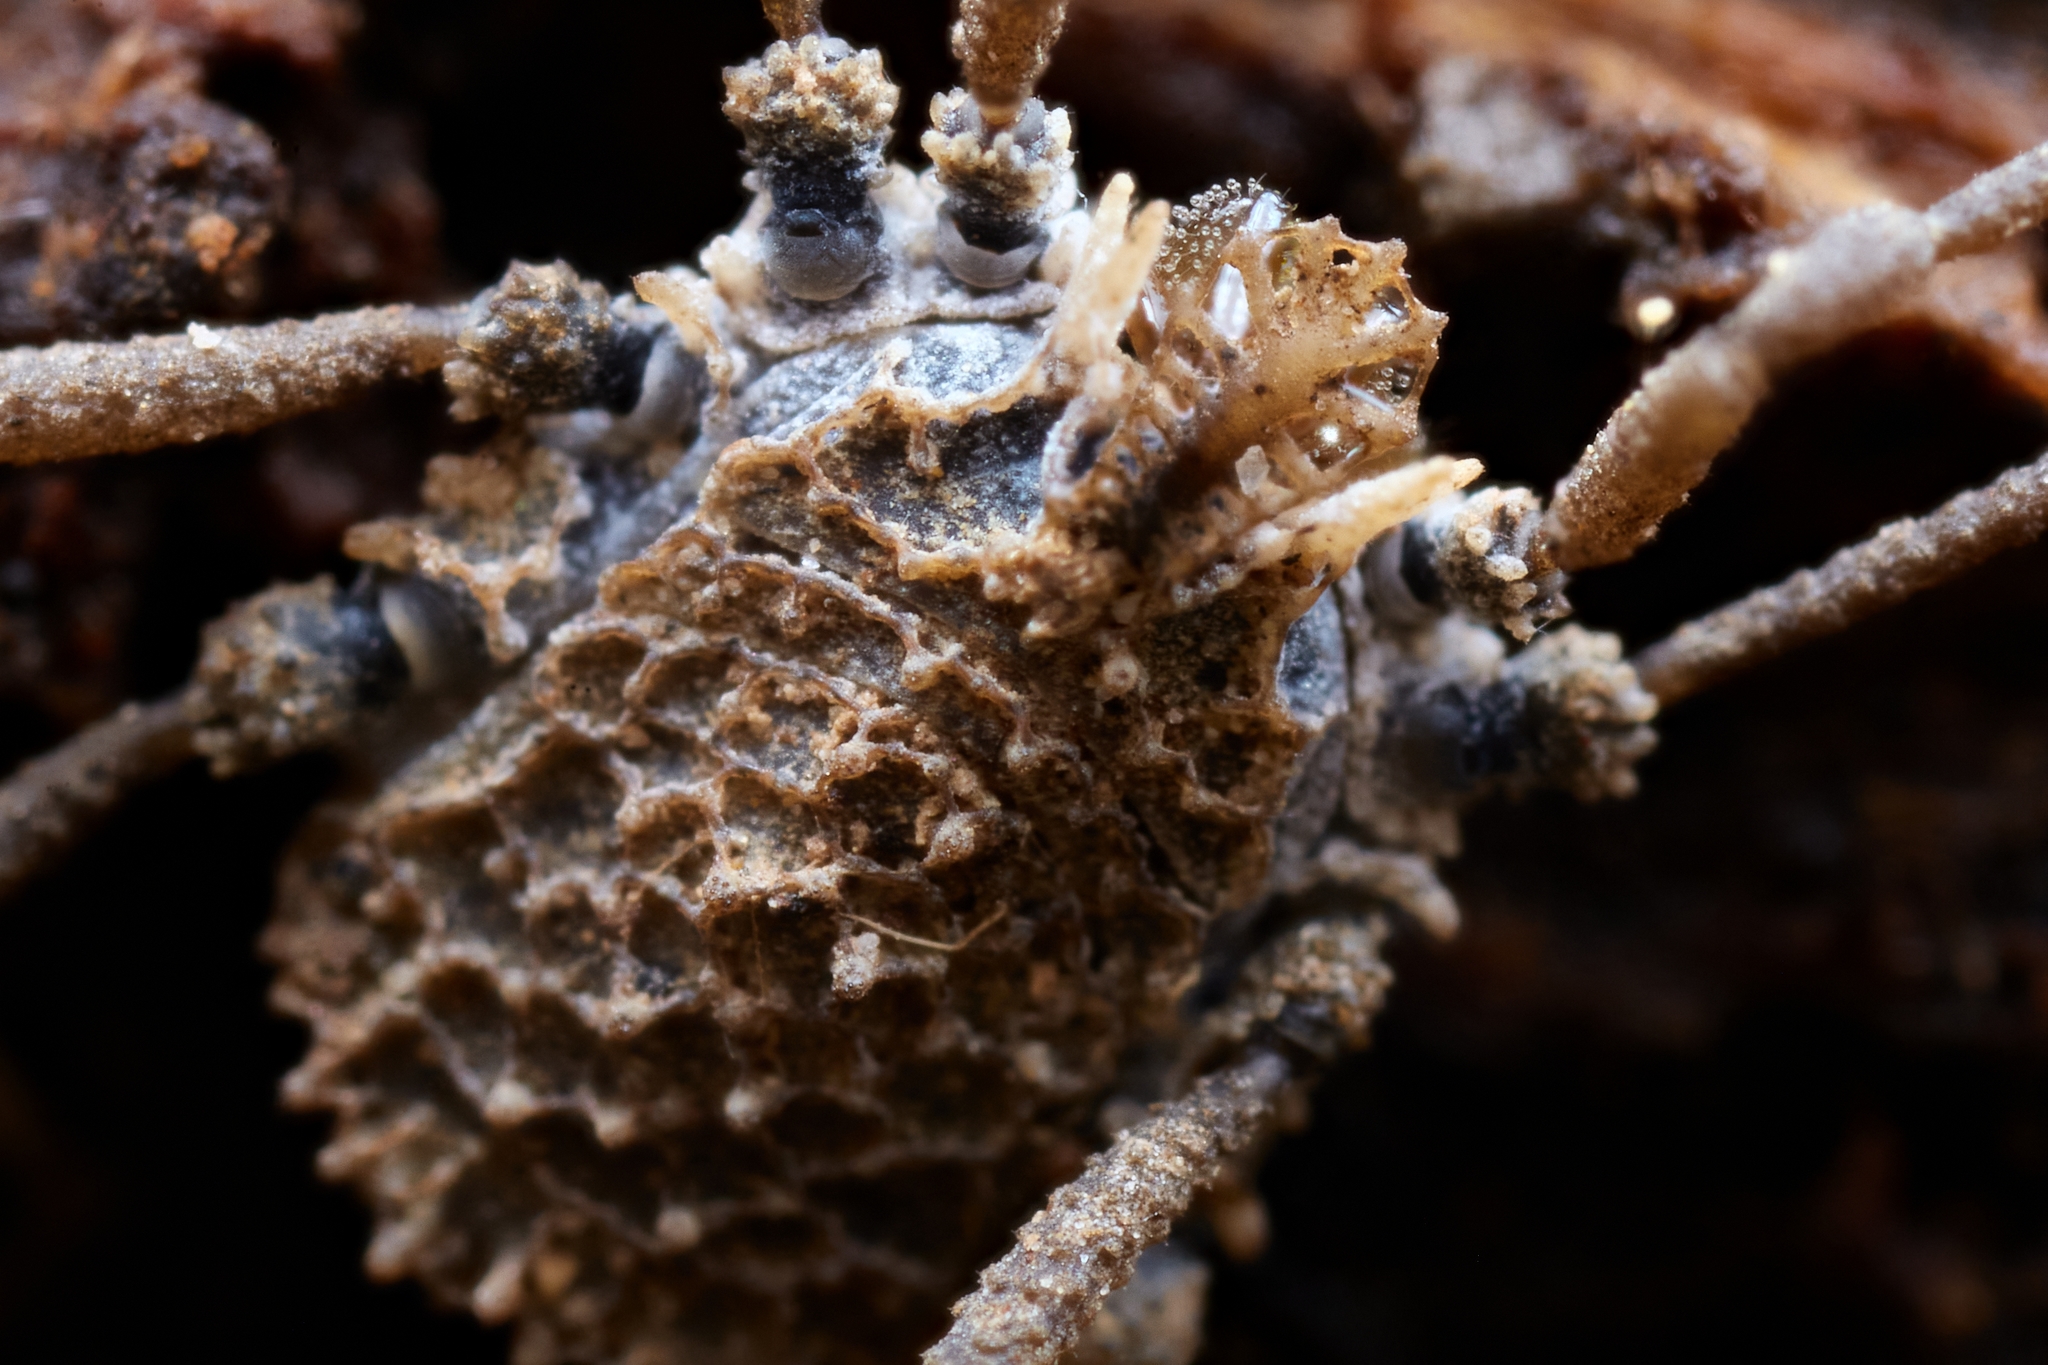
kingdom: Animalia
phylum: Arthropoda
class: Arachnida
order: Opiliones
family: Nemastomatidae
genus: Ortholasma
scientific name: Ortholasma rugosum
